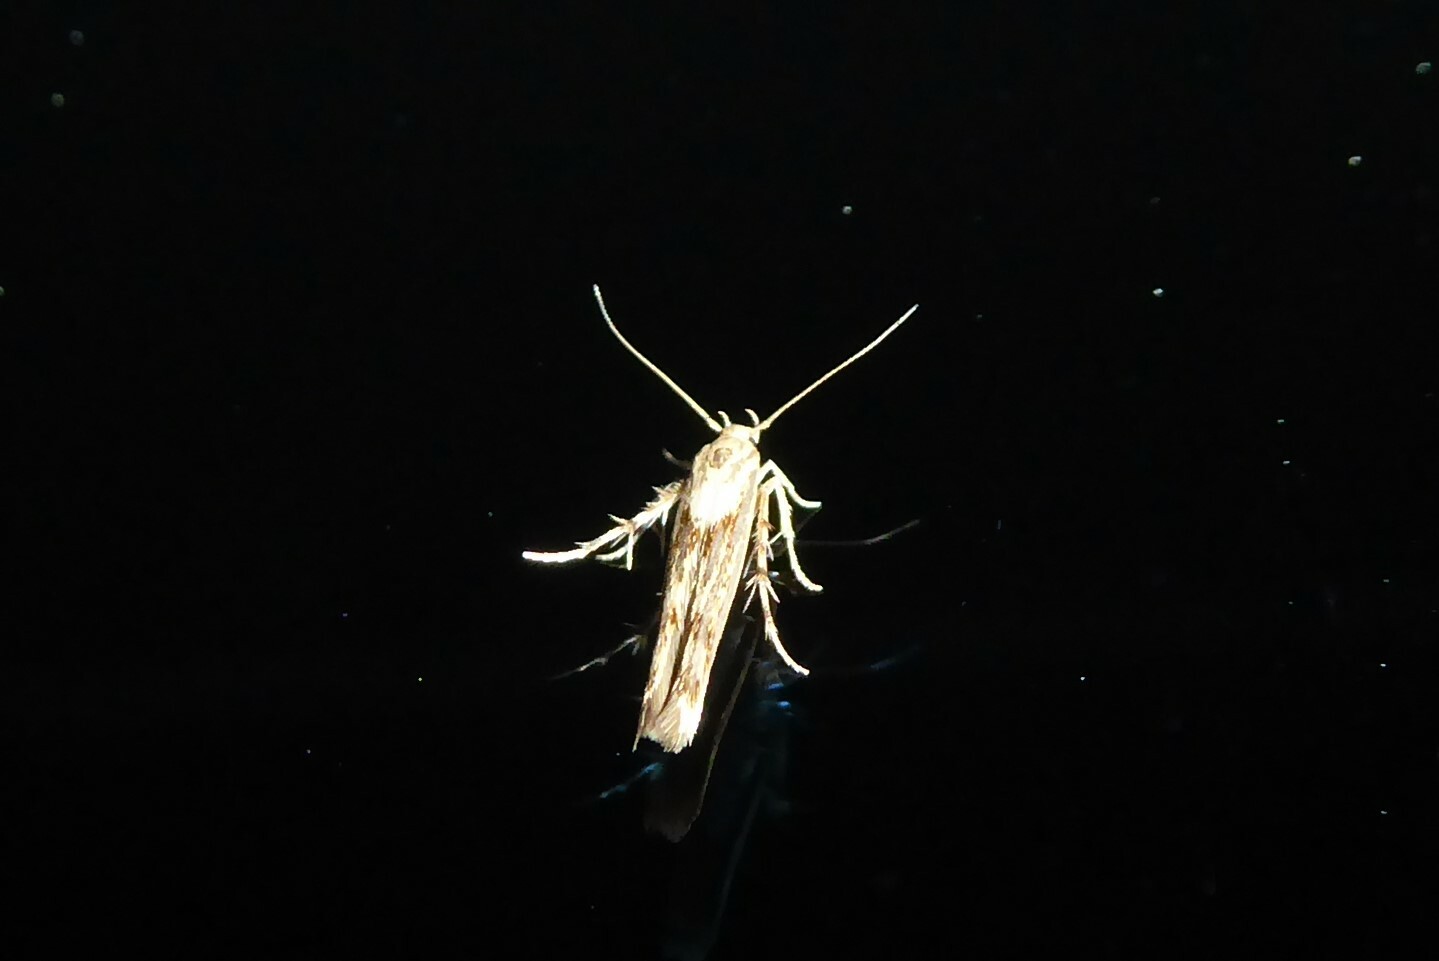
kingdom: Animalia
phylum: Arthropoda
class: Insecta
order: Lepidoptera
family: Stathmopodidae
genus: Stathmopoda
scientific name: Stathmopoda plumbiflua
